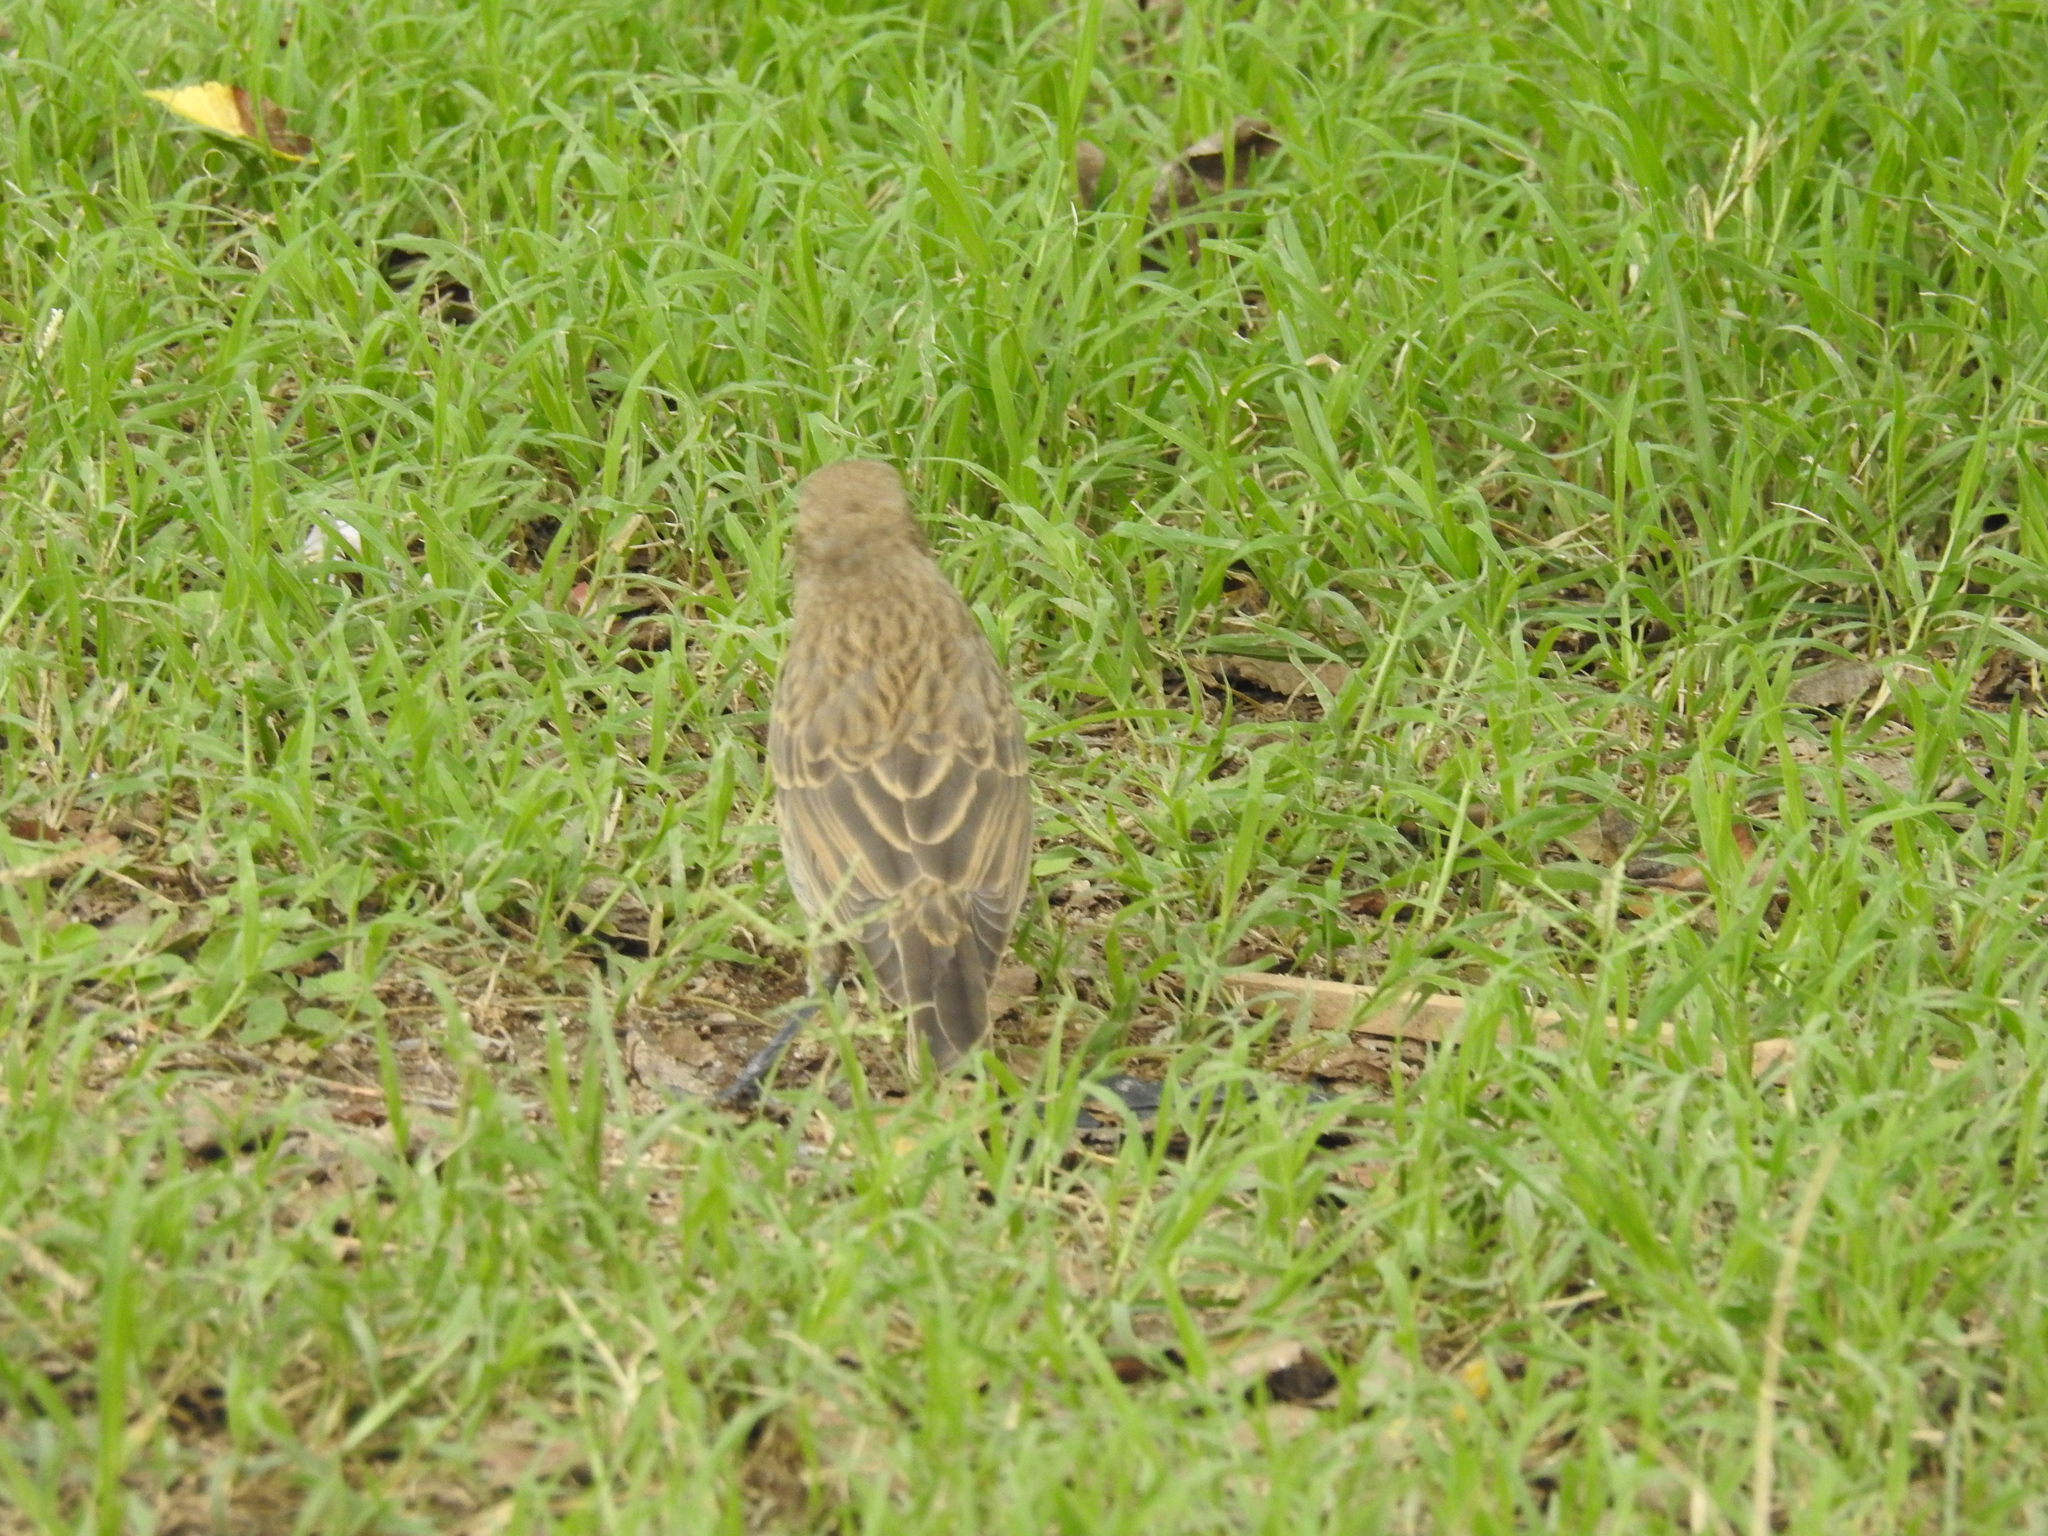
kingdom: Animalia
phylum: Chordata
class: Aves
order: Passeriformes
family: Thraupidae
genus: Sicalis
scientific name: Sicalis flaveola
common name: Saffron finch
